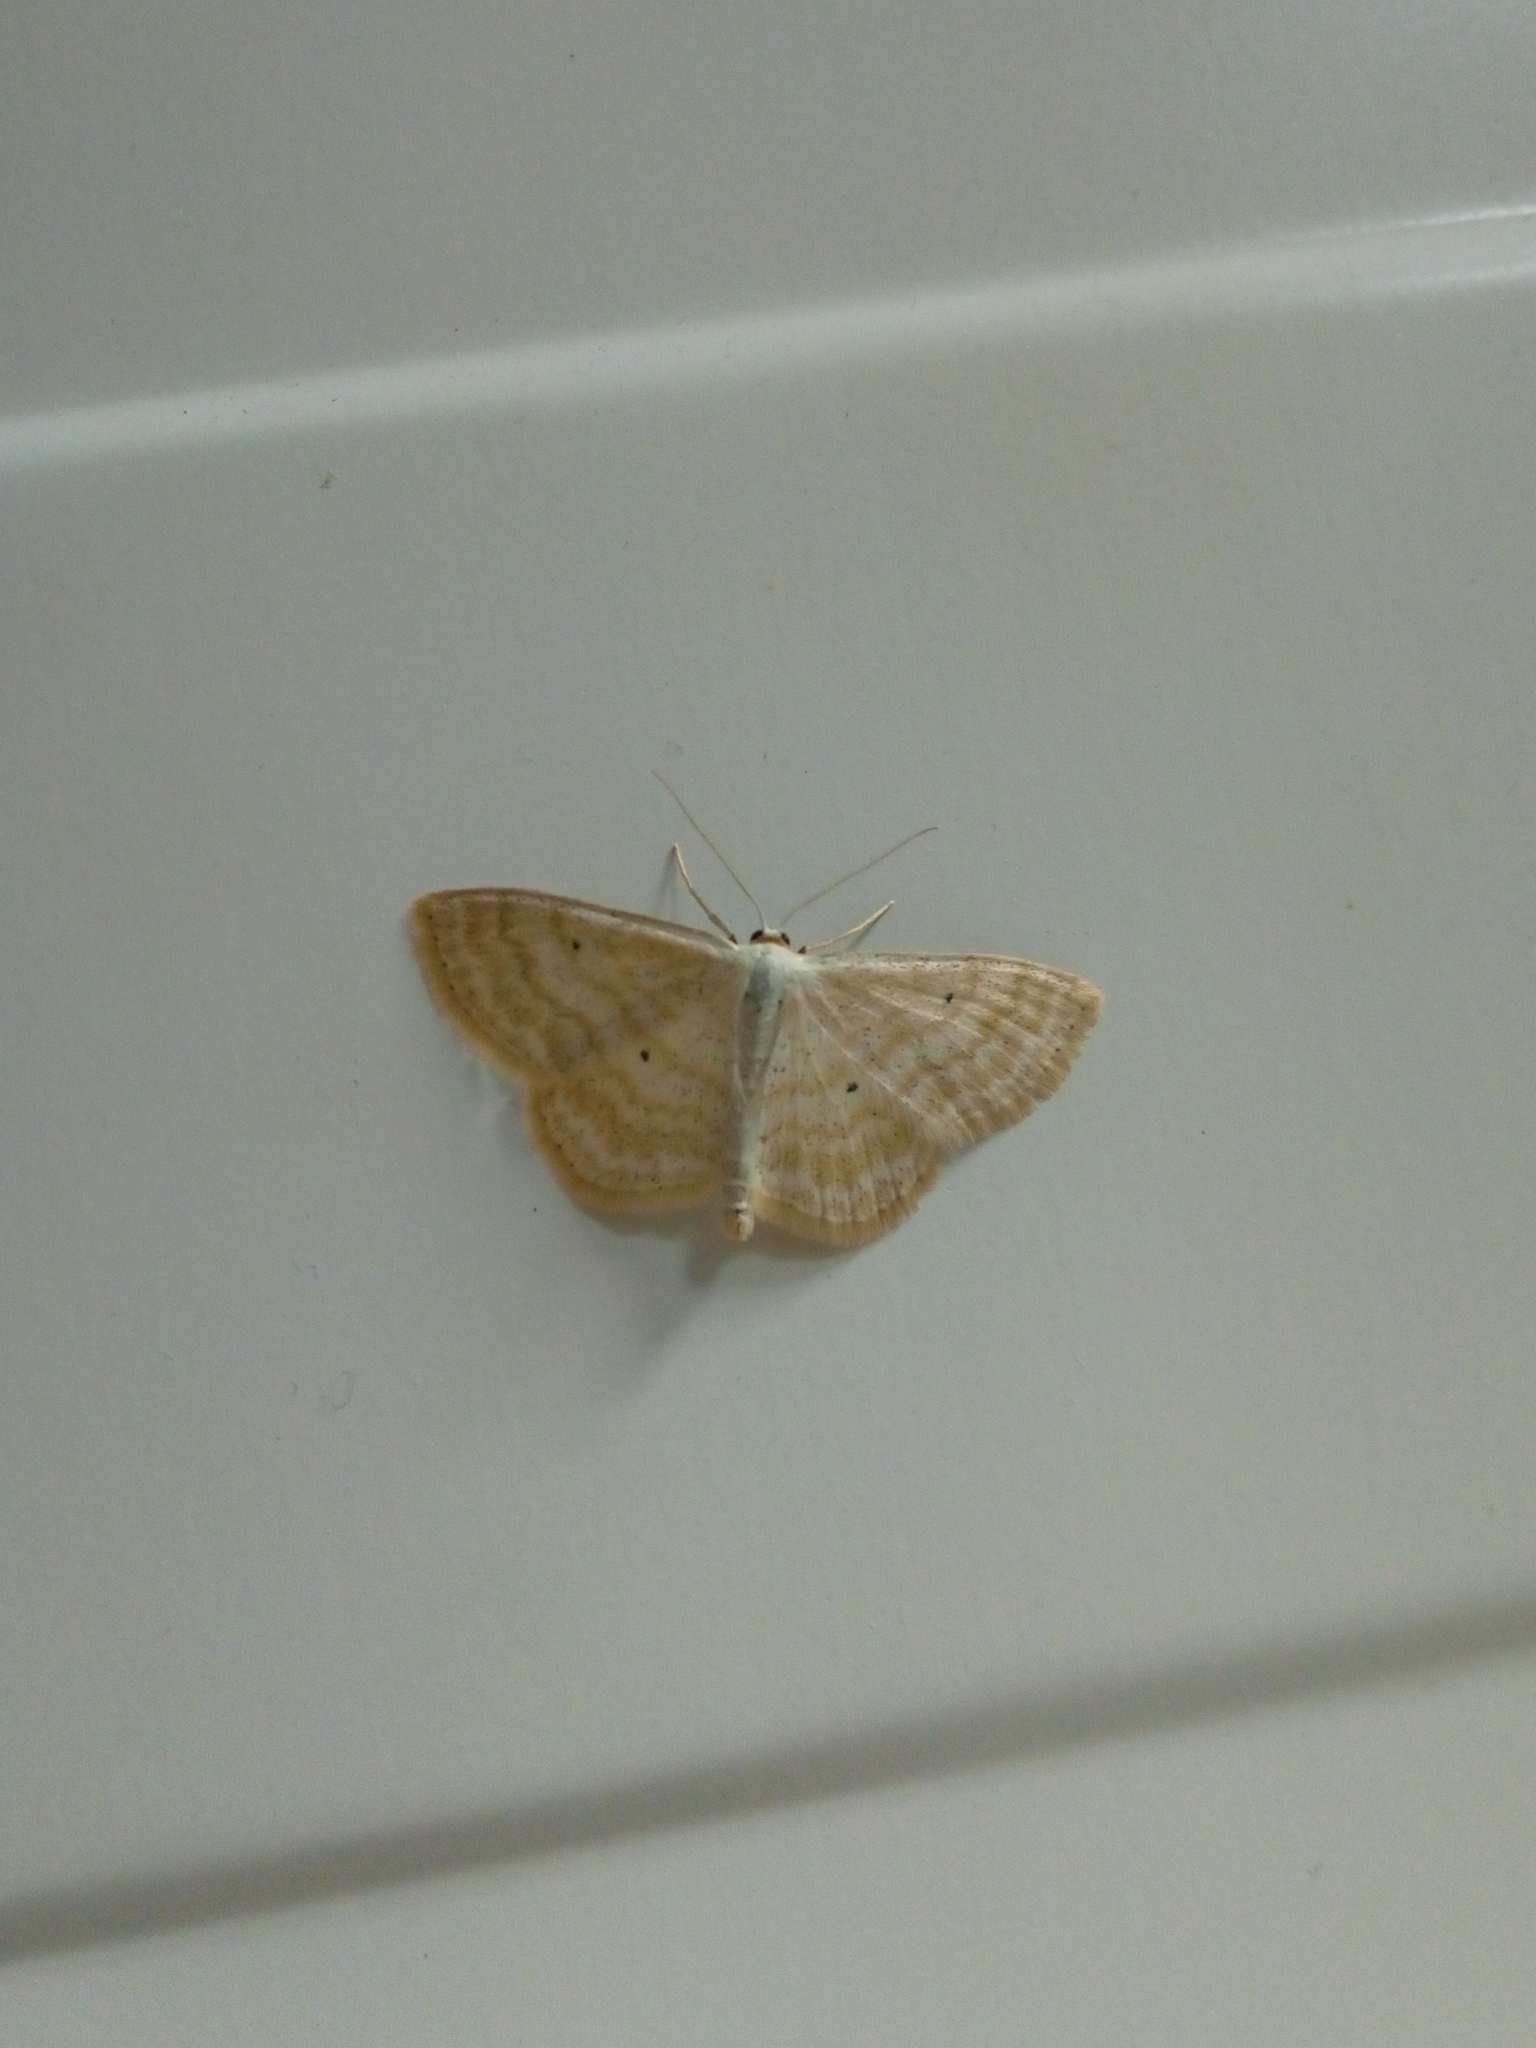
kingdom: Animalia
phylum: Arthropoda
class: Insecta
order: Lepidoptera
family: Geometridae
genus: Scopula
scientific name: Scopula immutata
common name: Lesser cream wave
